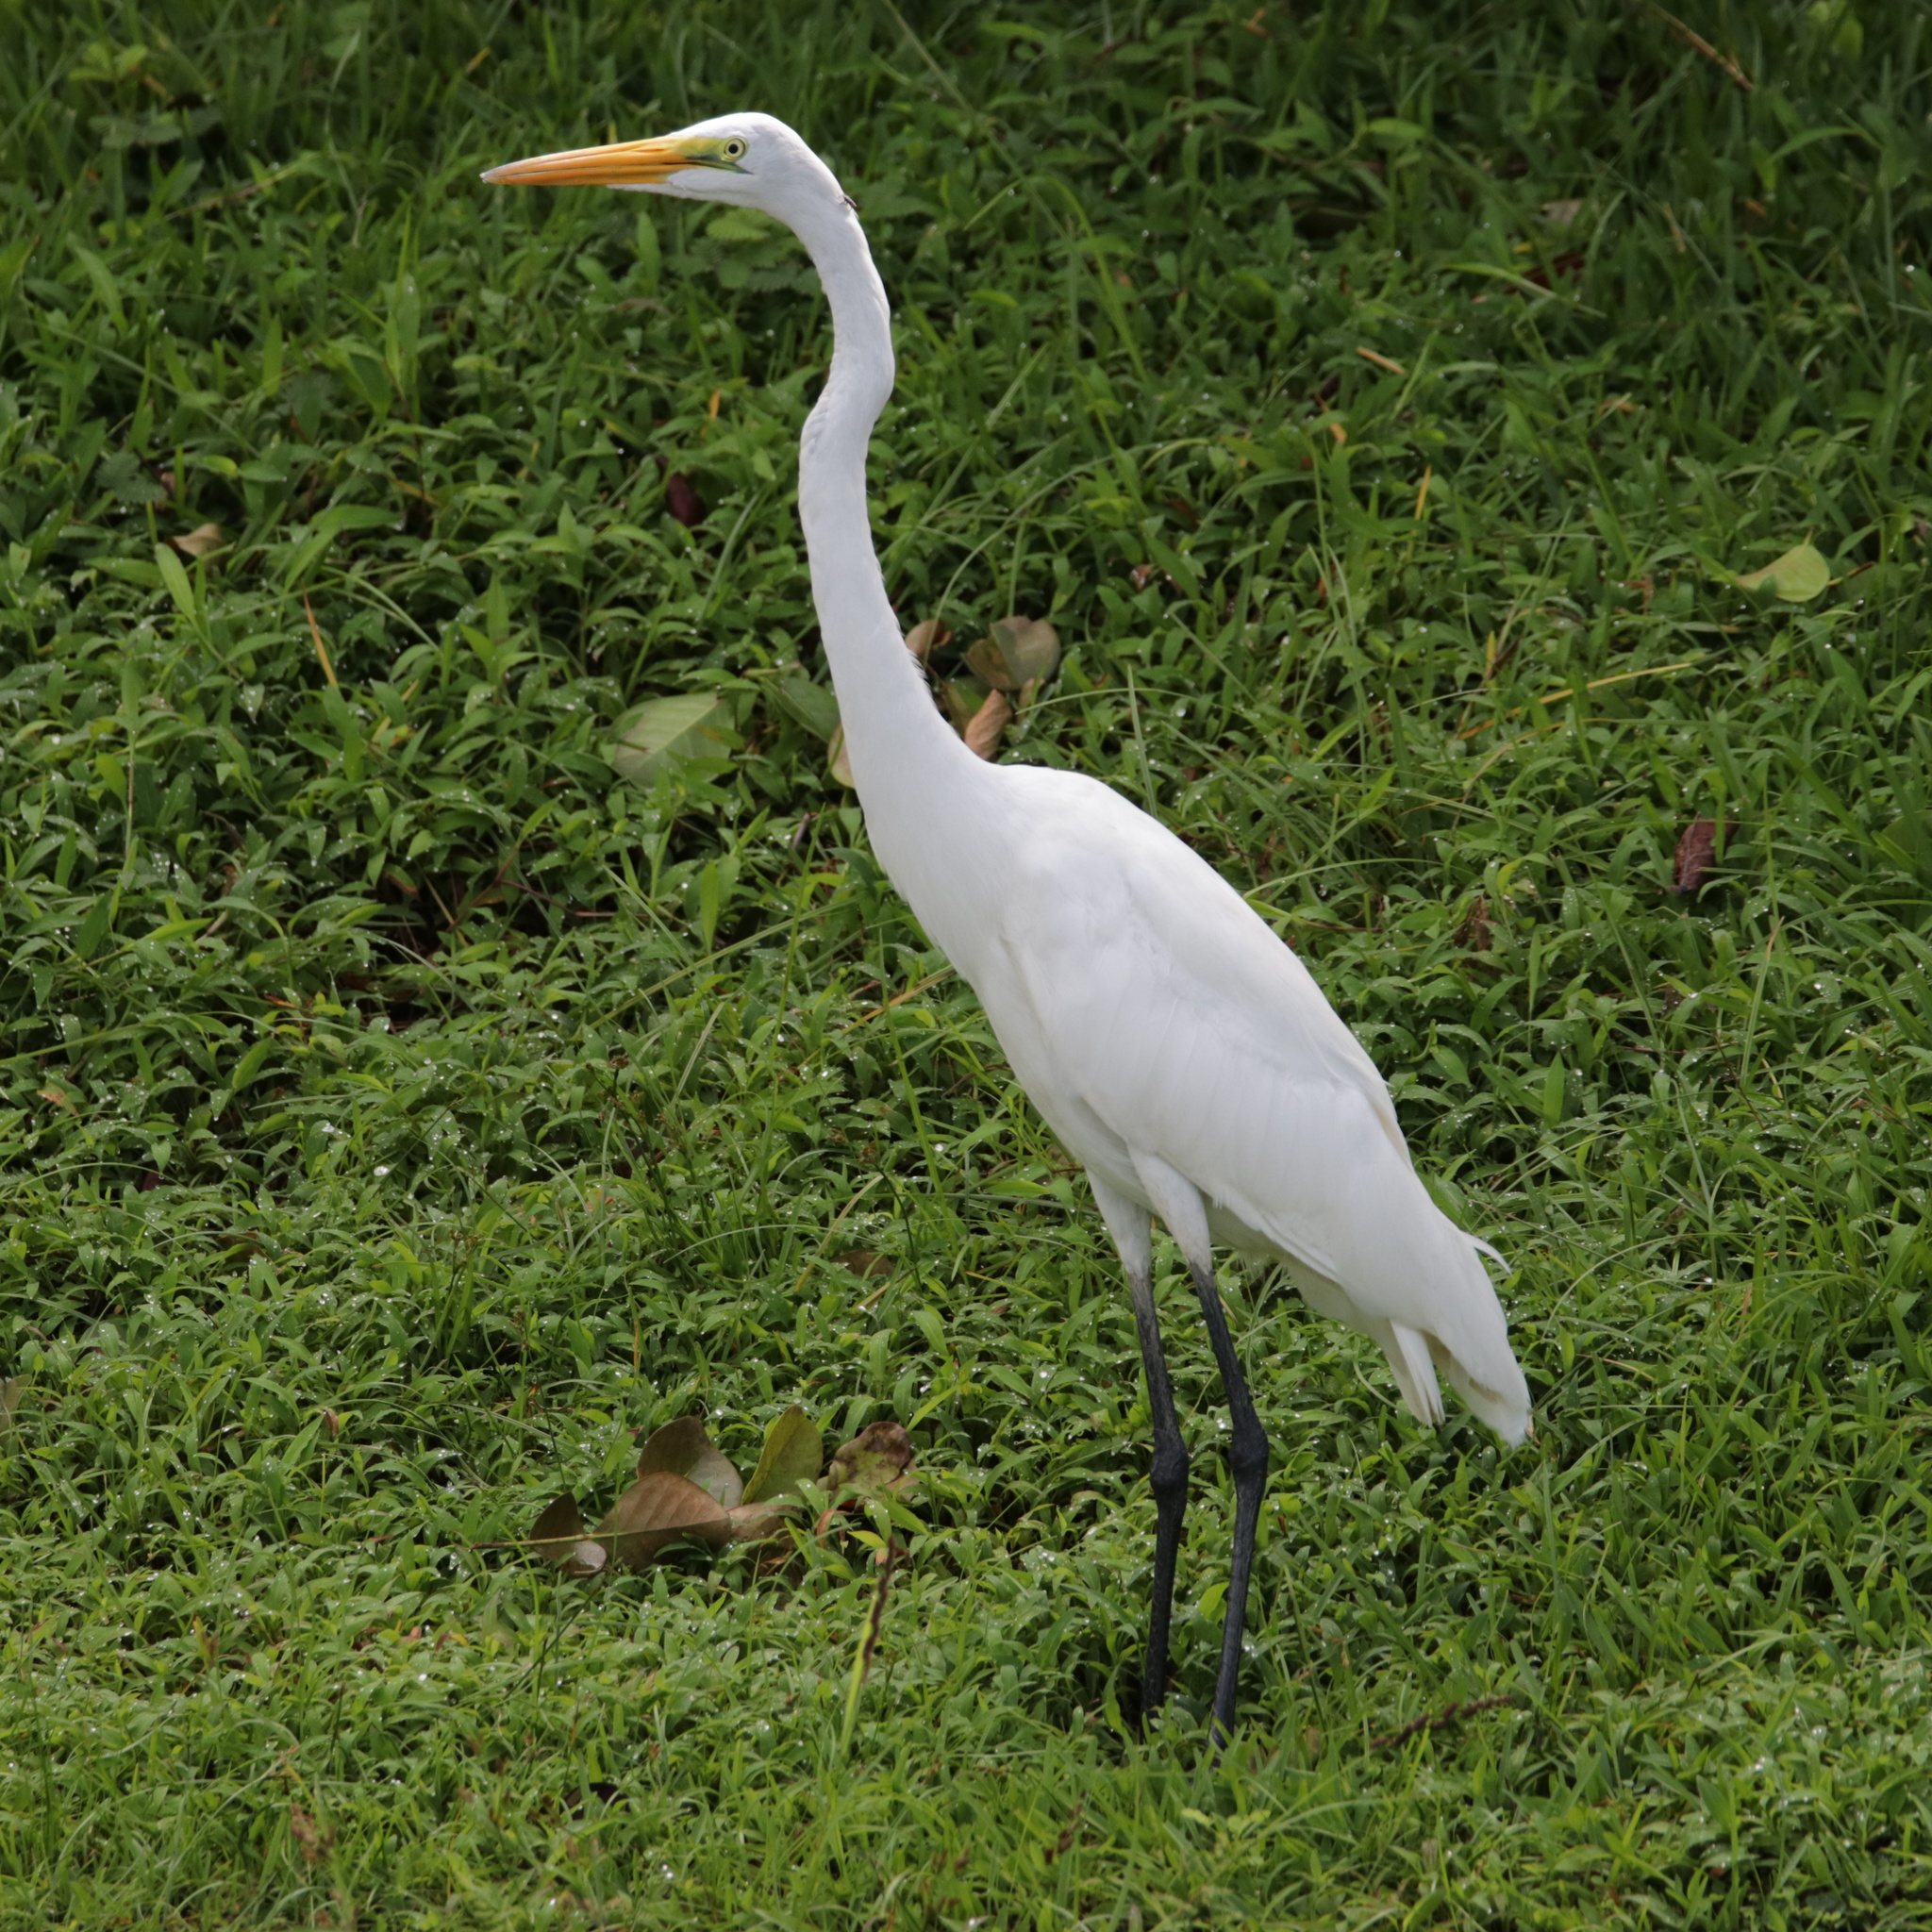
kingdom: Animalia
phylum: Chordata
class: Aves
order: Pelecaniformes
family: Ardeidae
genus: Ardea
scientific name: Ardea alba
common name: Great egret
